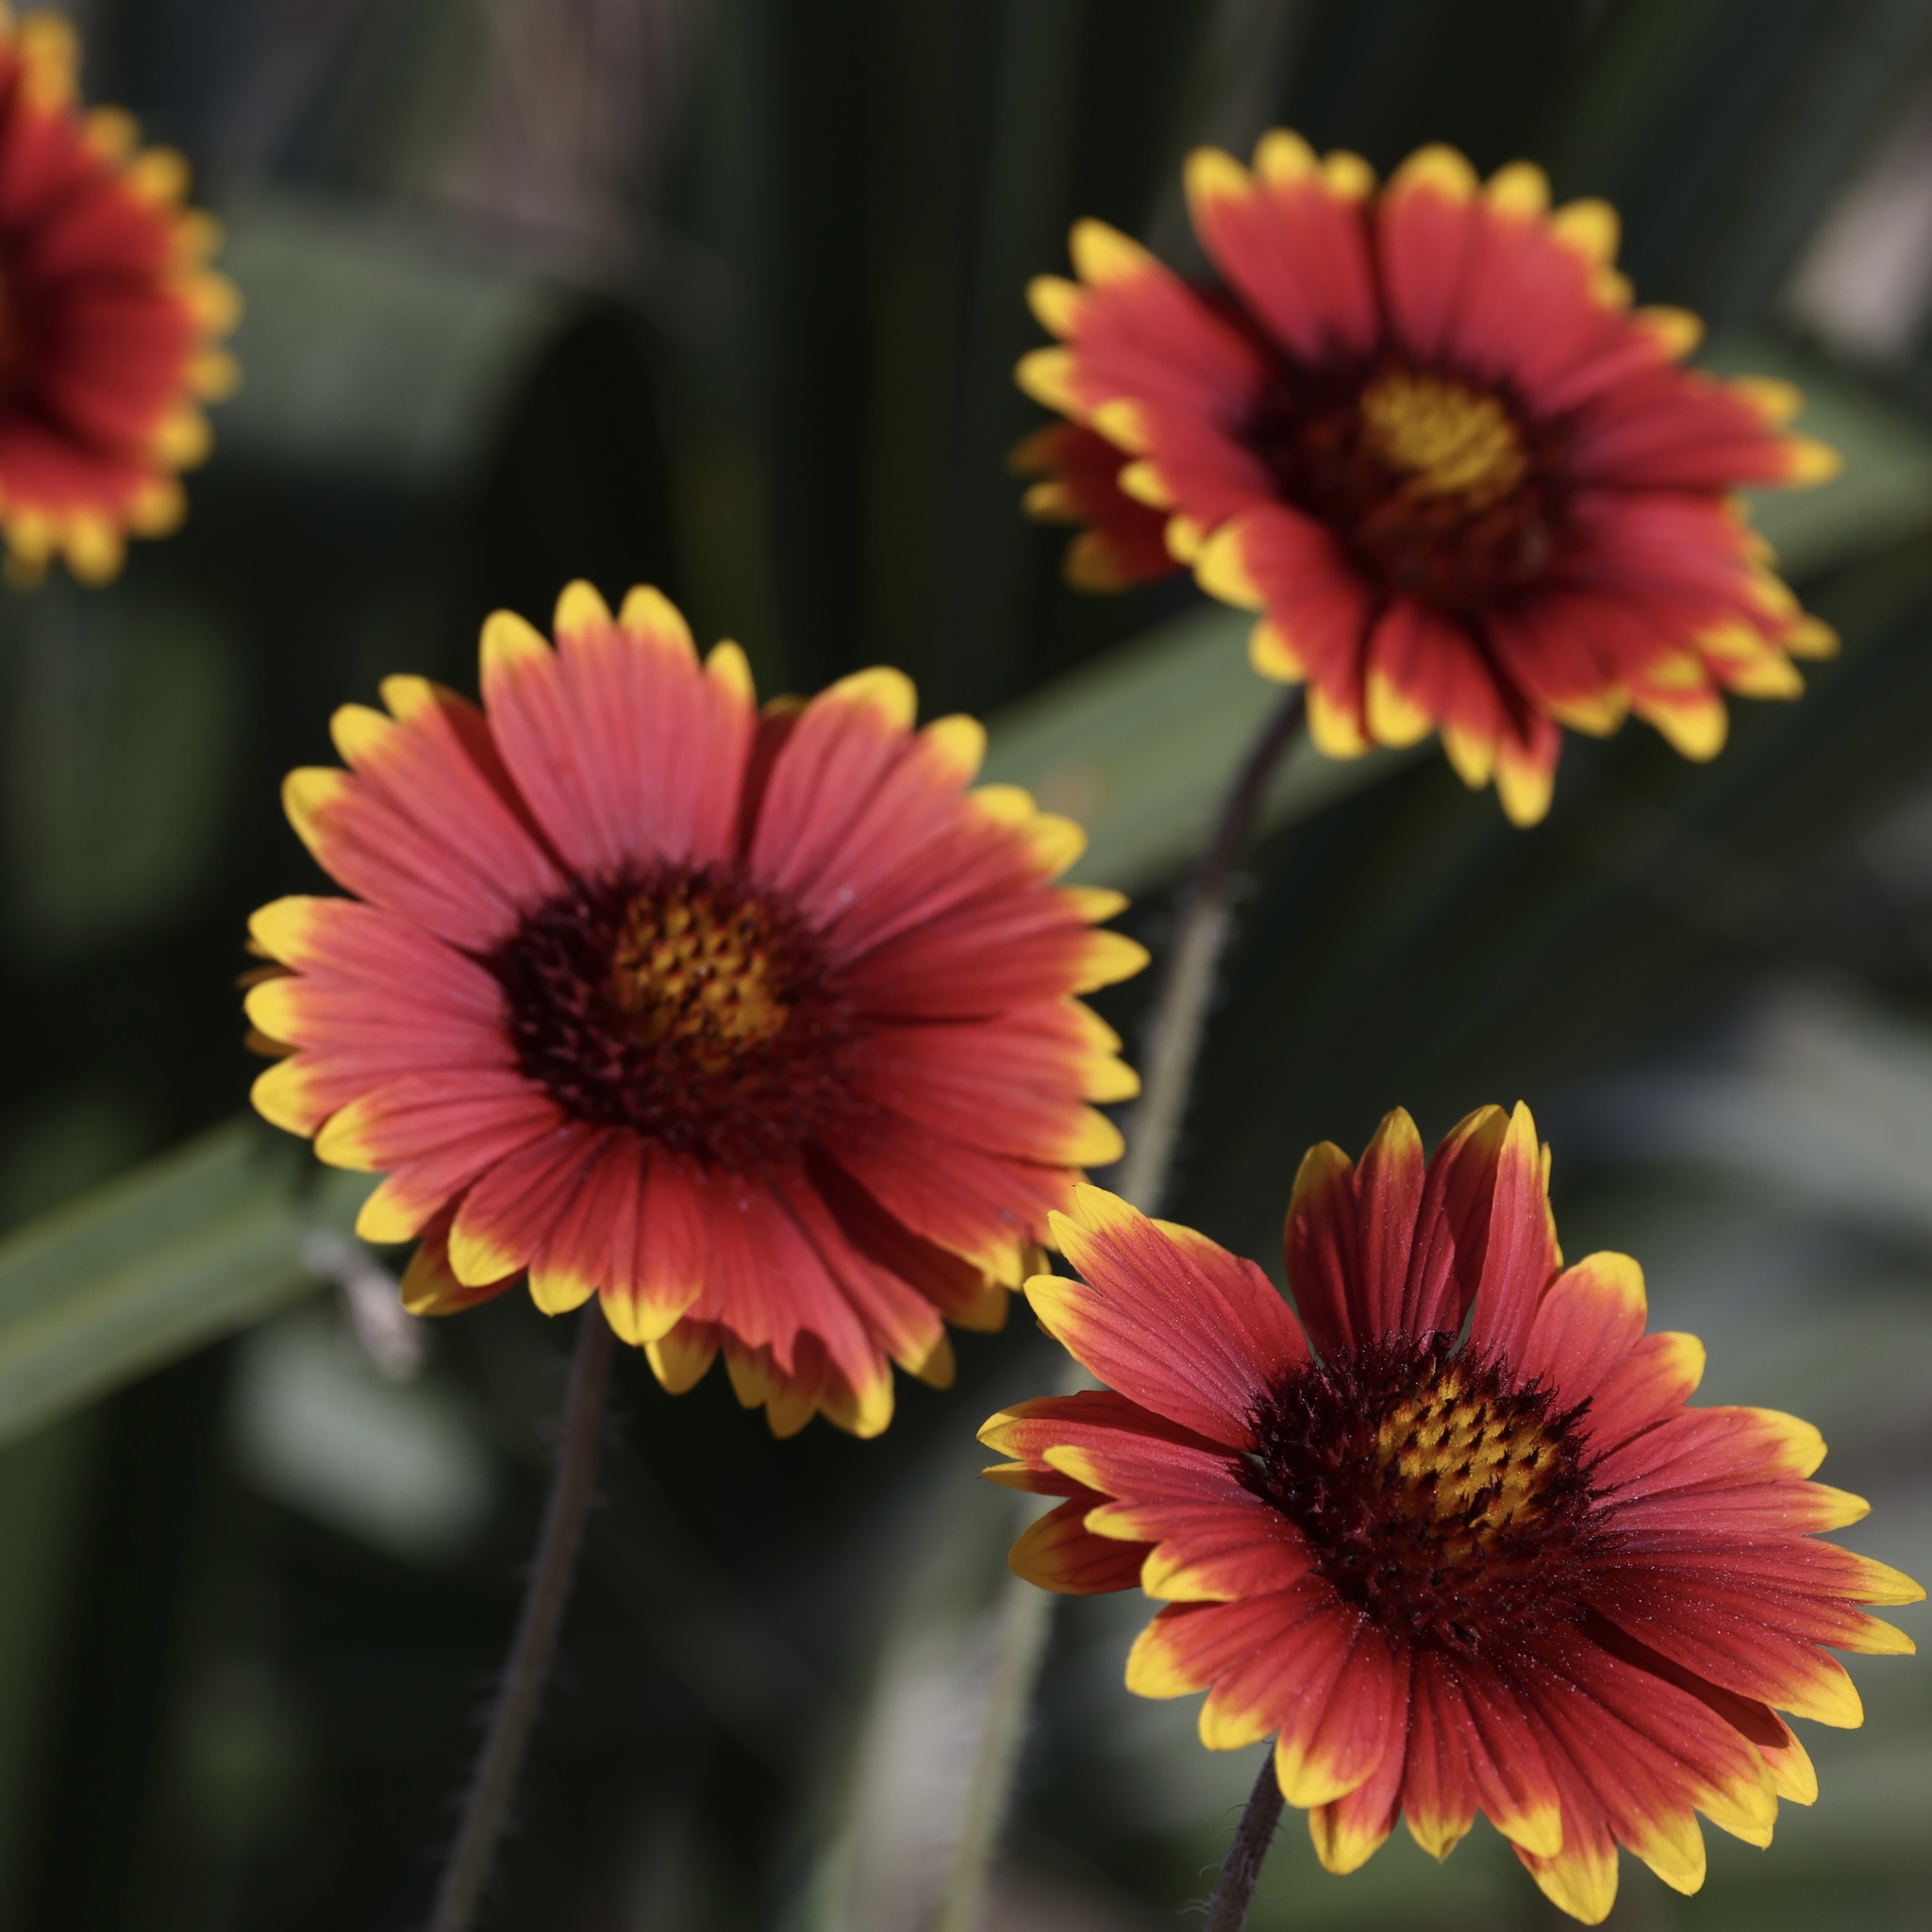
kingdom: Plantae
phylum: Tracheophyta
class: Magnoliopsida
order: Asterales
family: Asteraceae
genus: Gaillardia
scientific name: Gaillardia pulchella
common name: Firewheel
